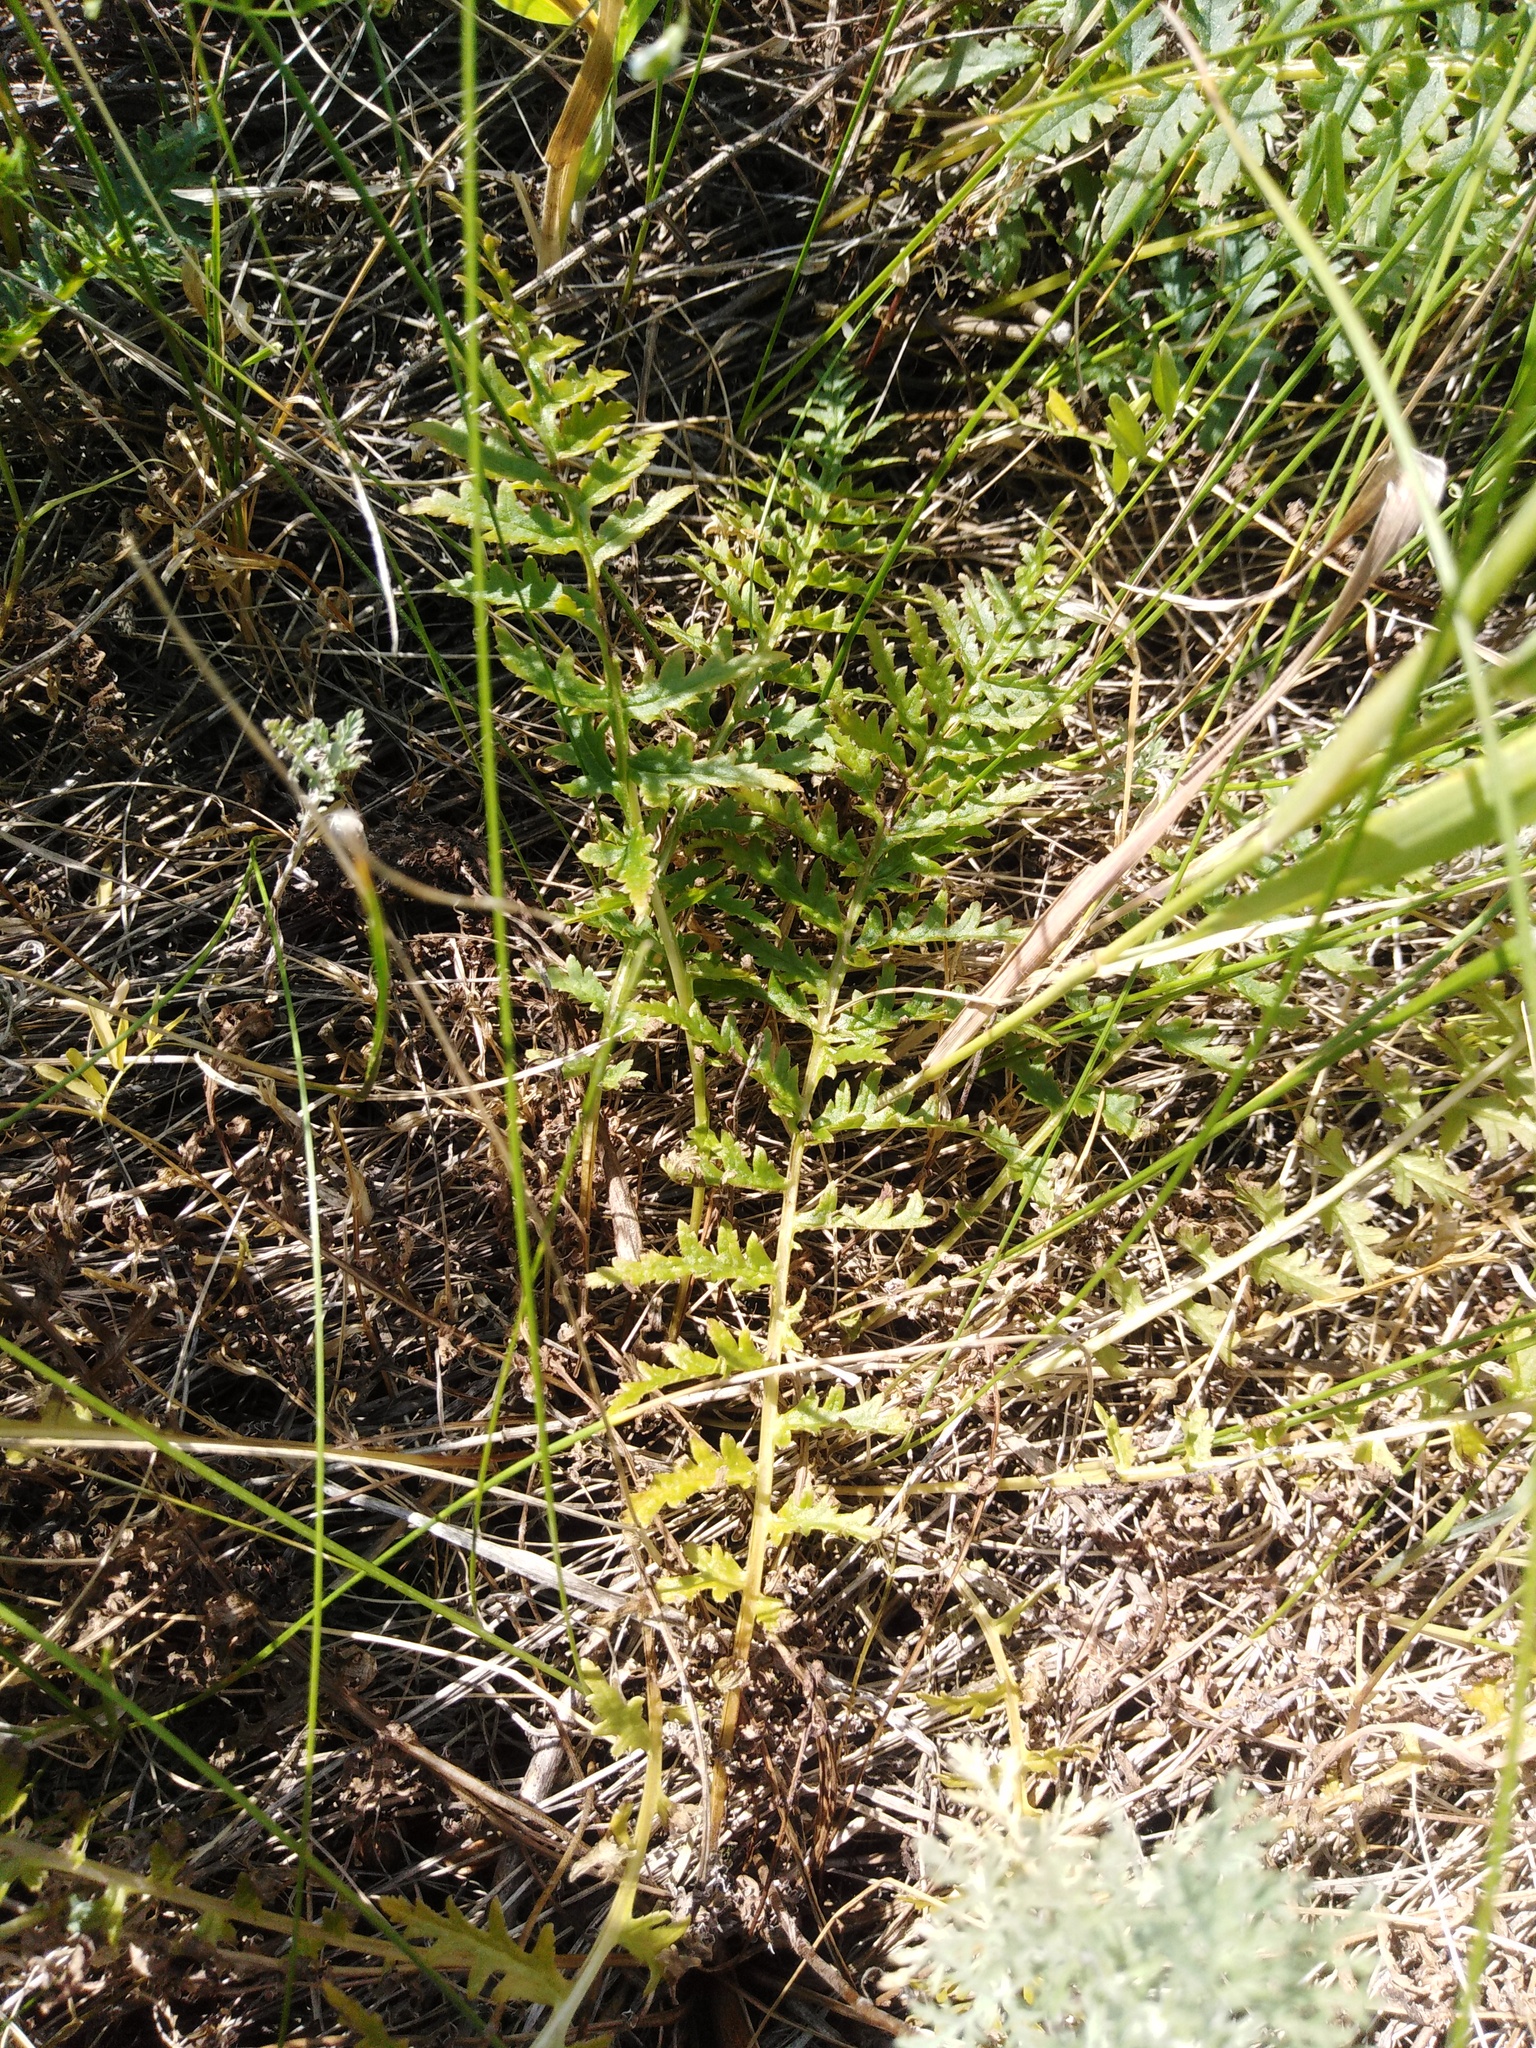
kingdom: Plantae
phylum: Tracheophyta
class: Magnoliopsida
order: Lamiales
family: Orobanchaceae
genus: Pedicularis
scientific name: Pedicularis dasystachys
